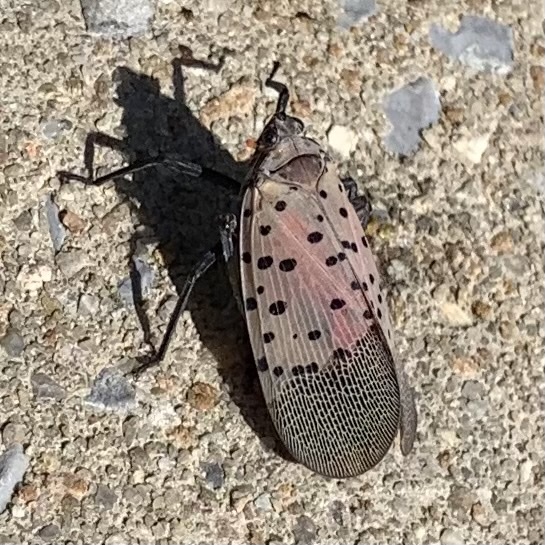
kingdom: Animalia
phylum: Arthropoda
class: Insecta
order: Hemiptera
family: Fulgoridae
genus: Lycorma
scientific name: Lycorma delicatula
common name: Spotted lanternfly
